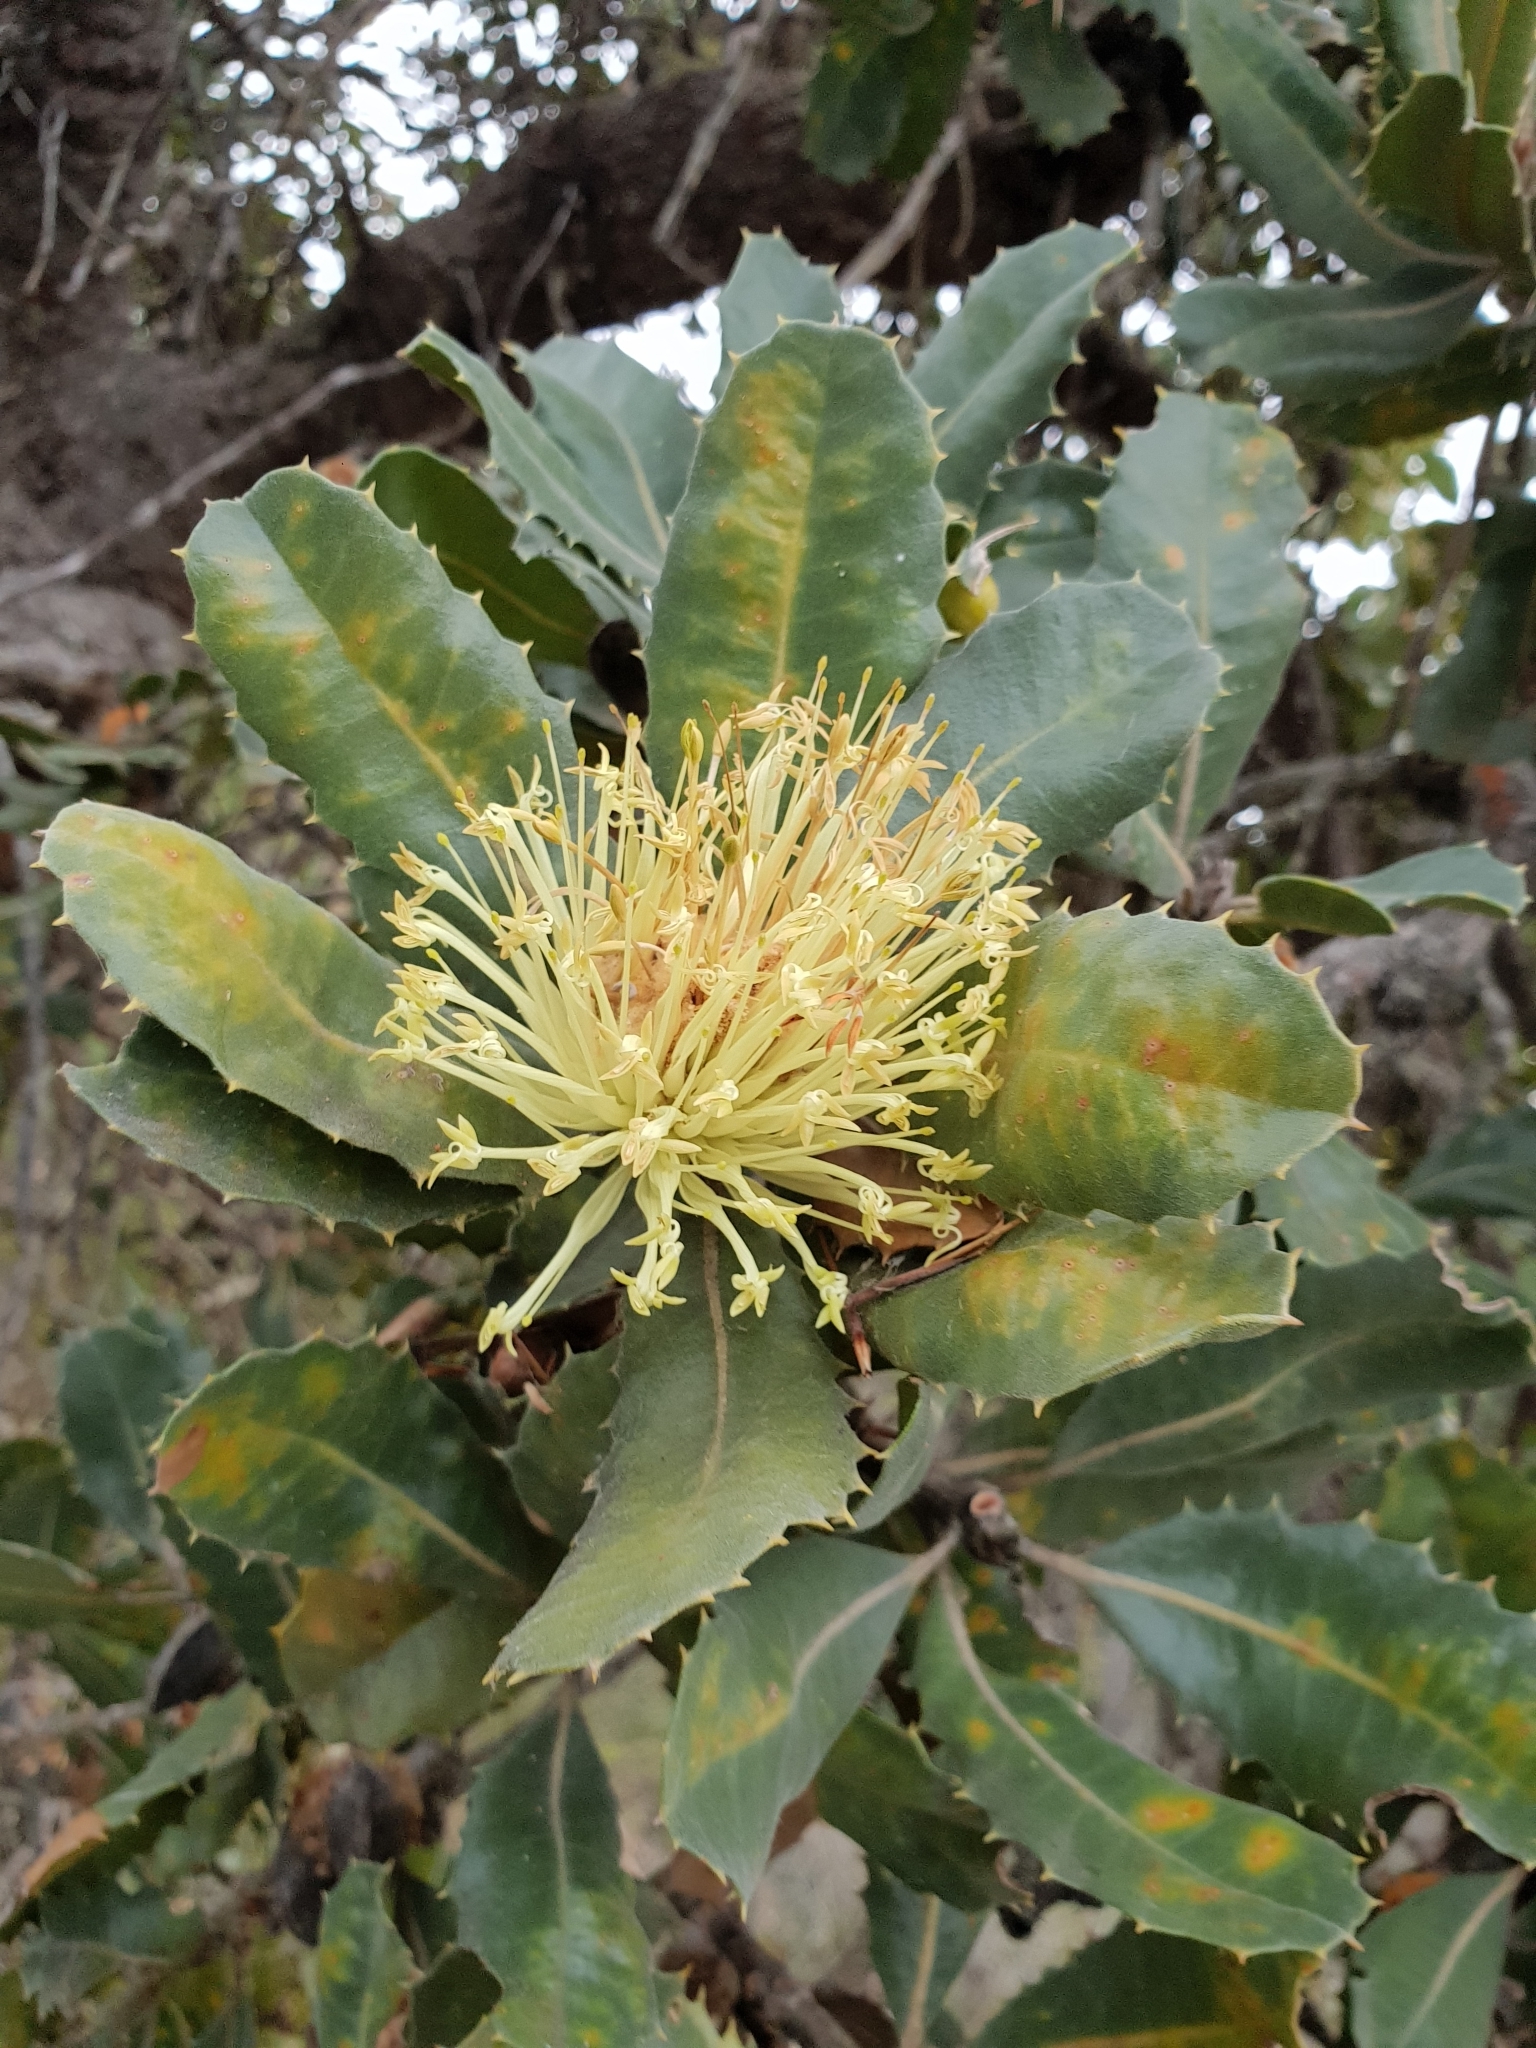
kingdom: Plantae
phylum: Tracheophyta
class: Magnoliopsida
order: Proteales
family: Proteaceae
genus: Banksia
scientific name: Banksia ilicifolia
